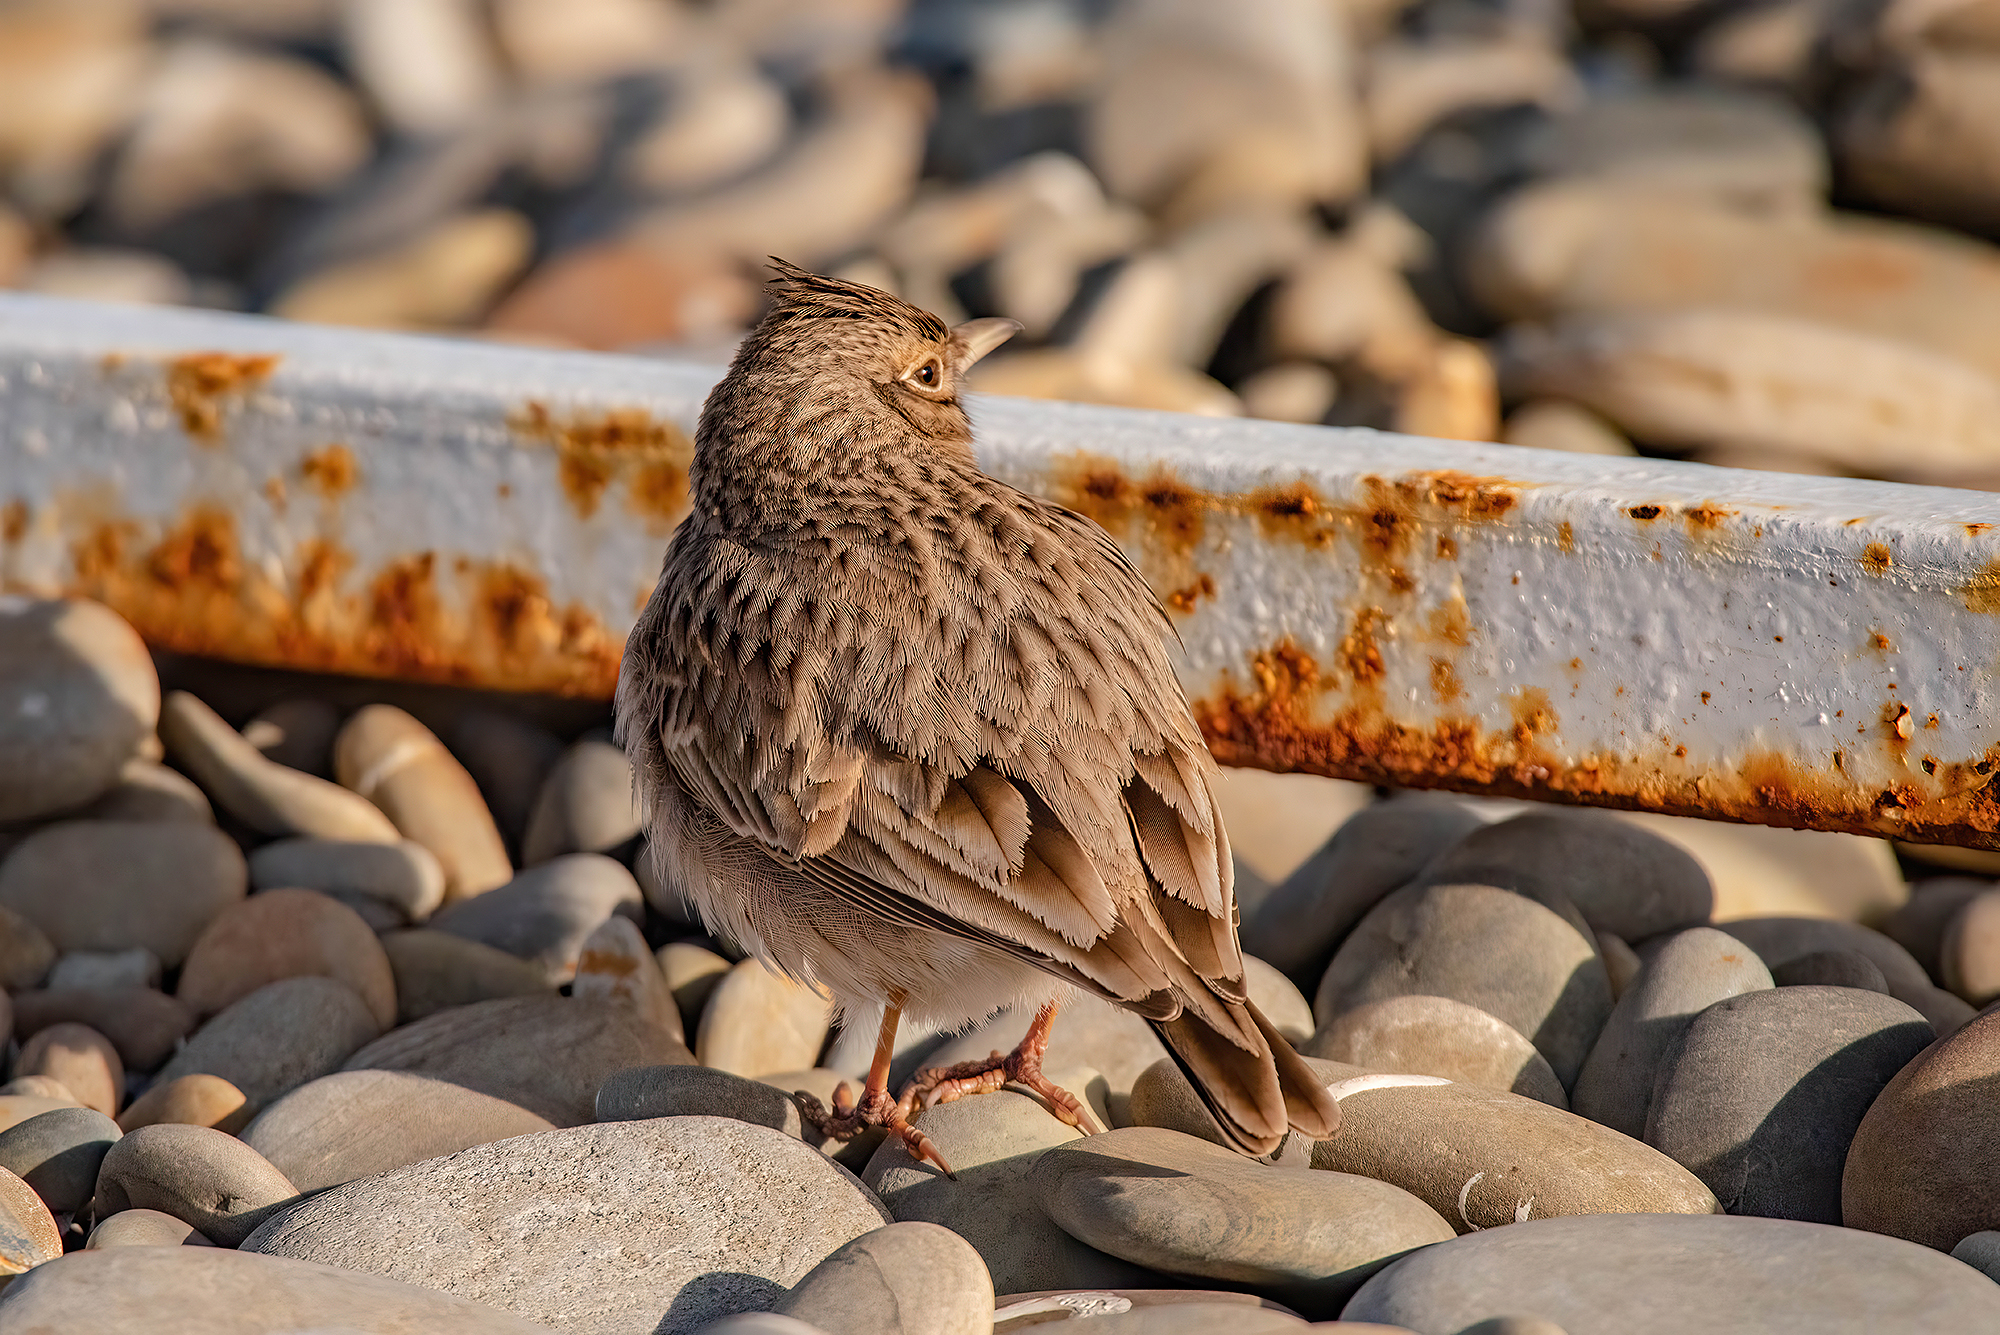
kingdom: Animalia
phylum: Chordata
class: Aves
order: Passeriformes
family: Alaudidae
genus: Galerida
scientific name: Galerida cristata
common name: Crested lark
